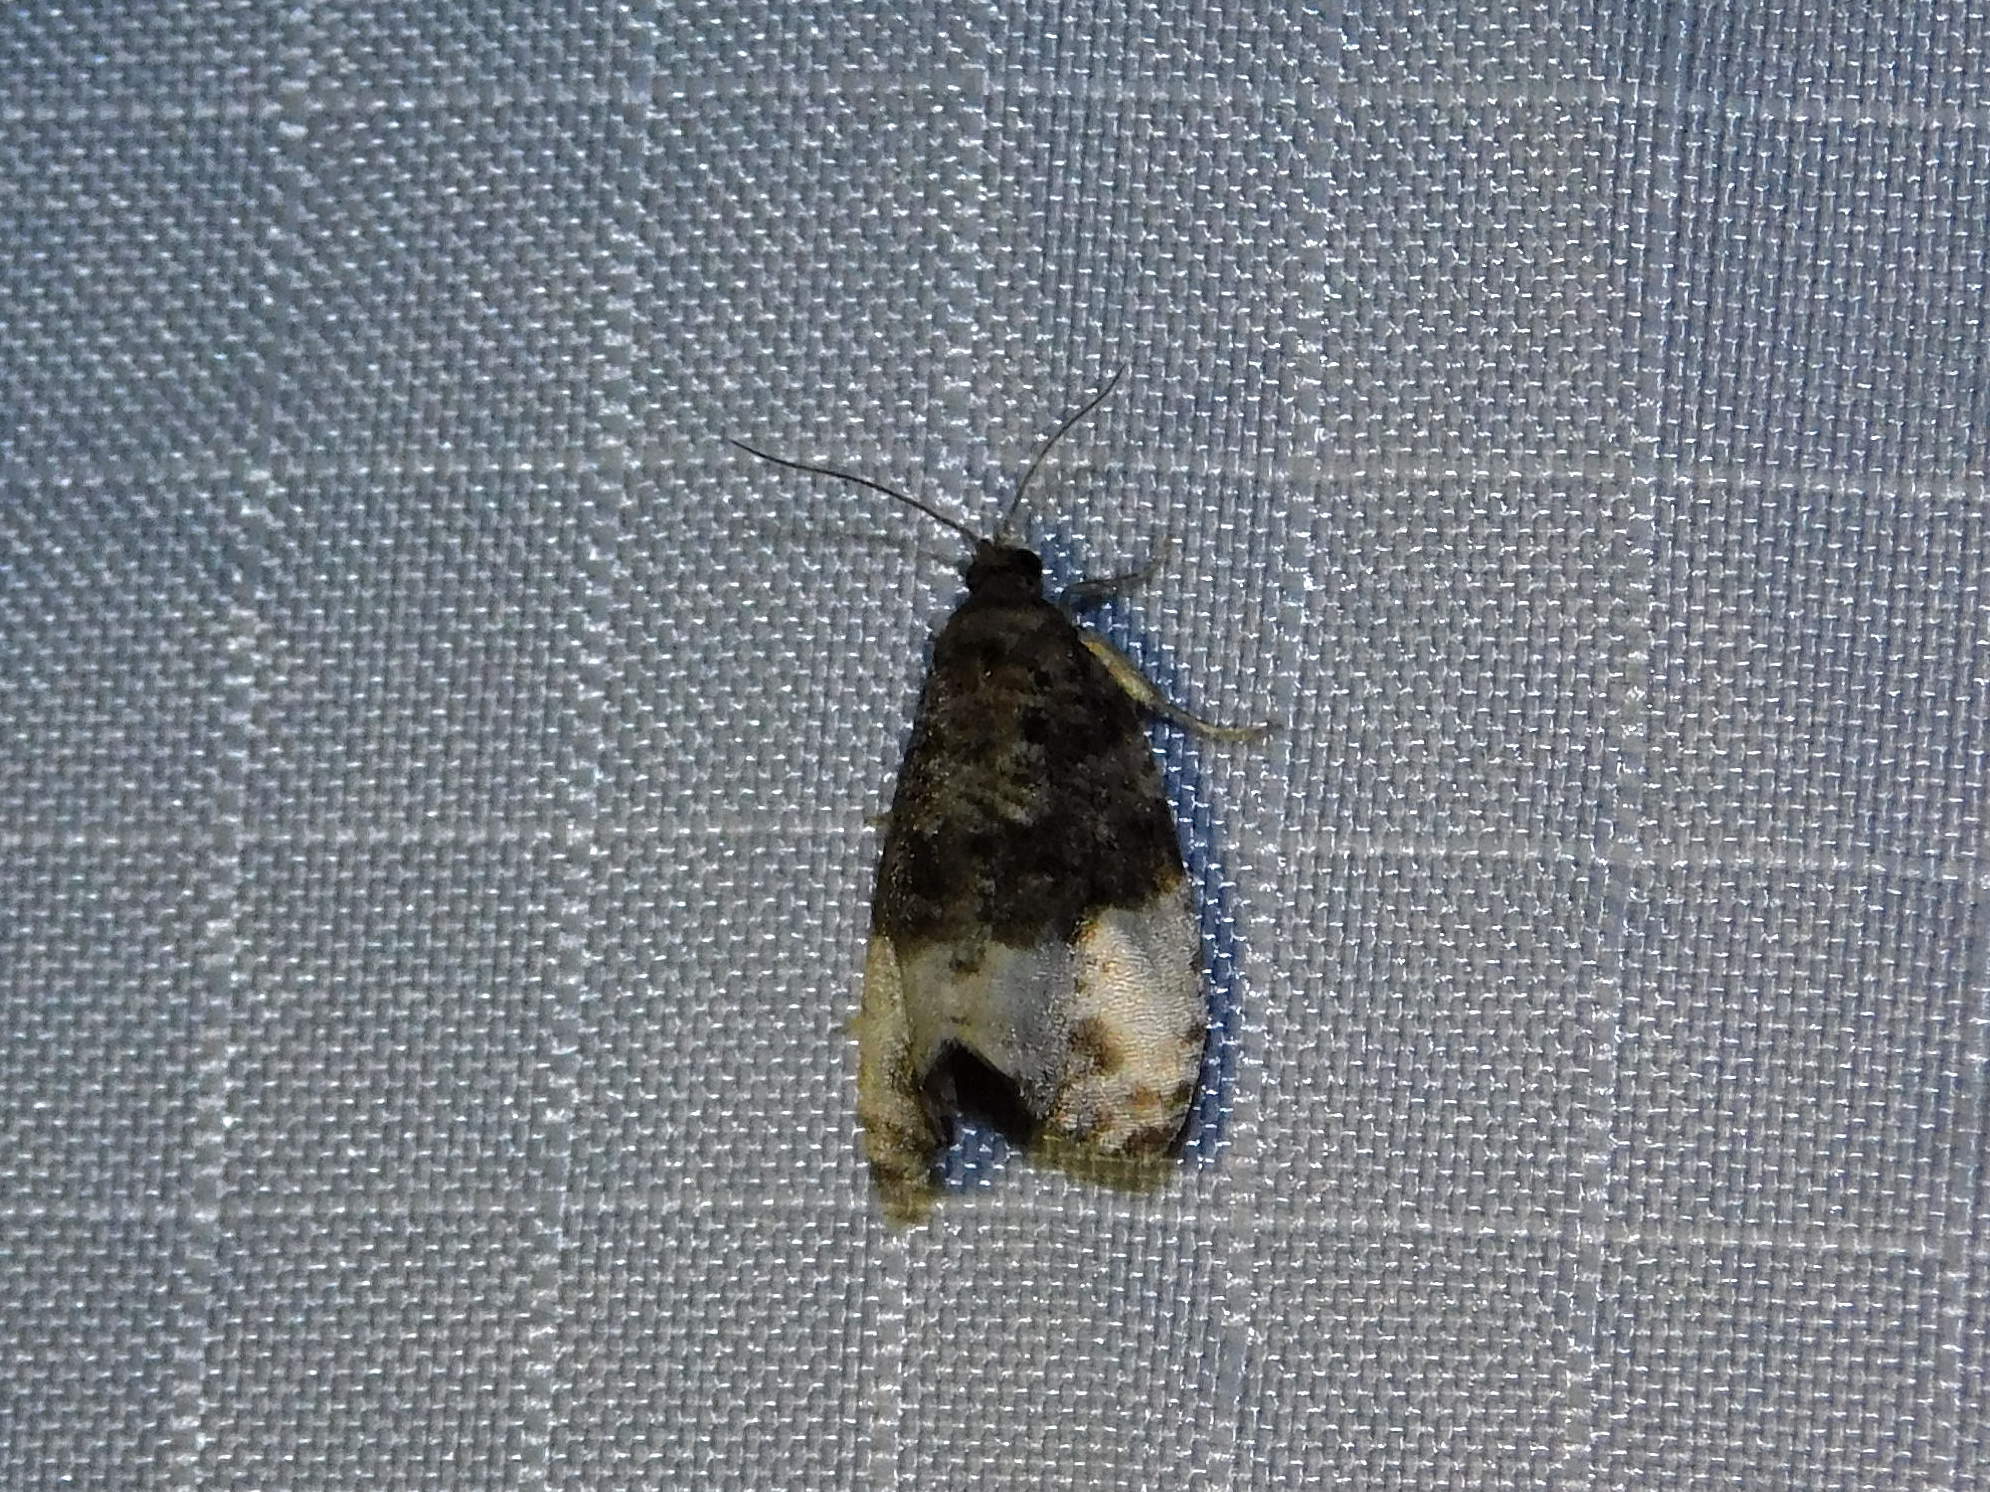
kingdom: Animalia
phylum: Arthropoda
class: Insecta
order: Lepidoptera
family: Tortricidae
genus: Hedya
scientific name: Hedya pruniana
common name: Plum tortrix
